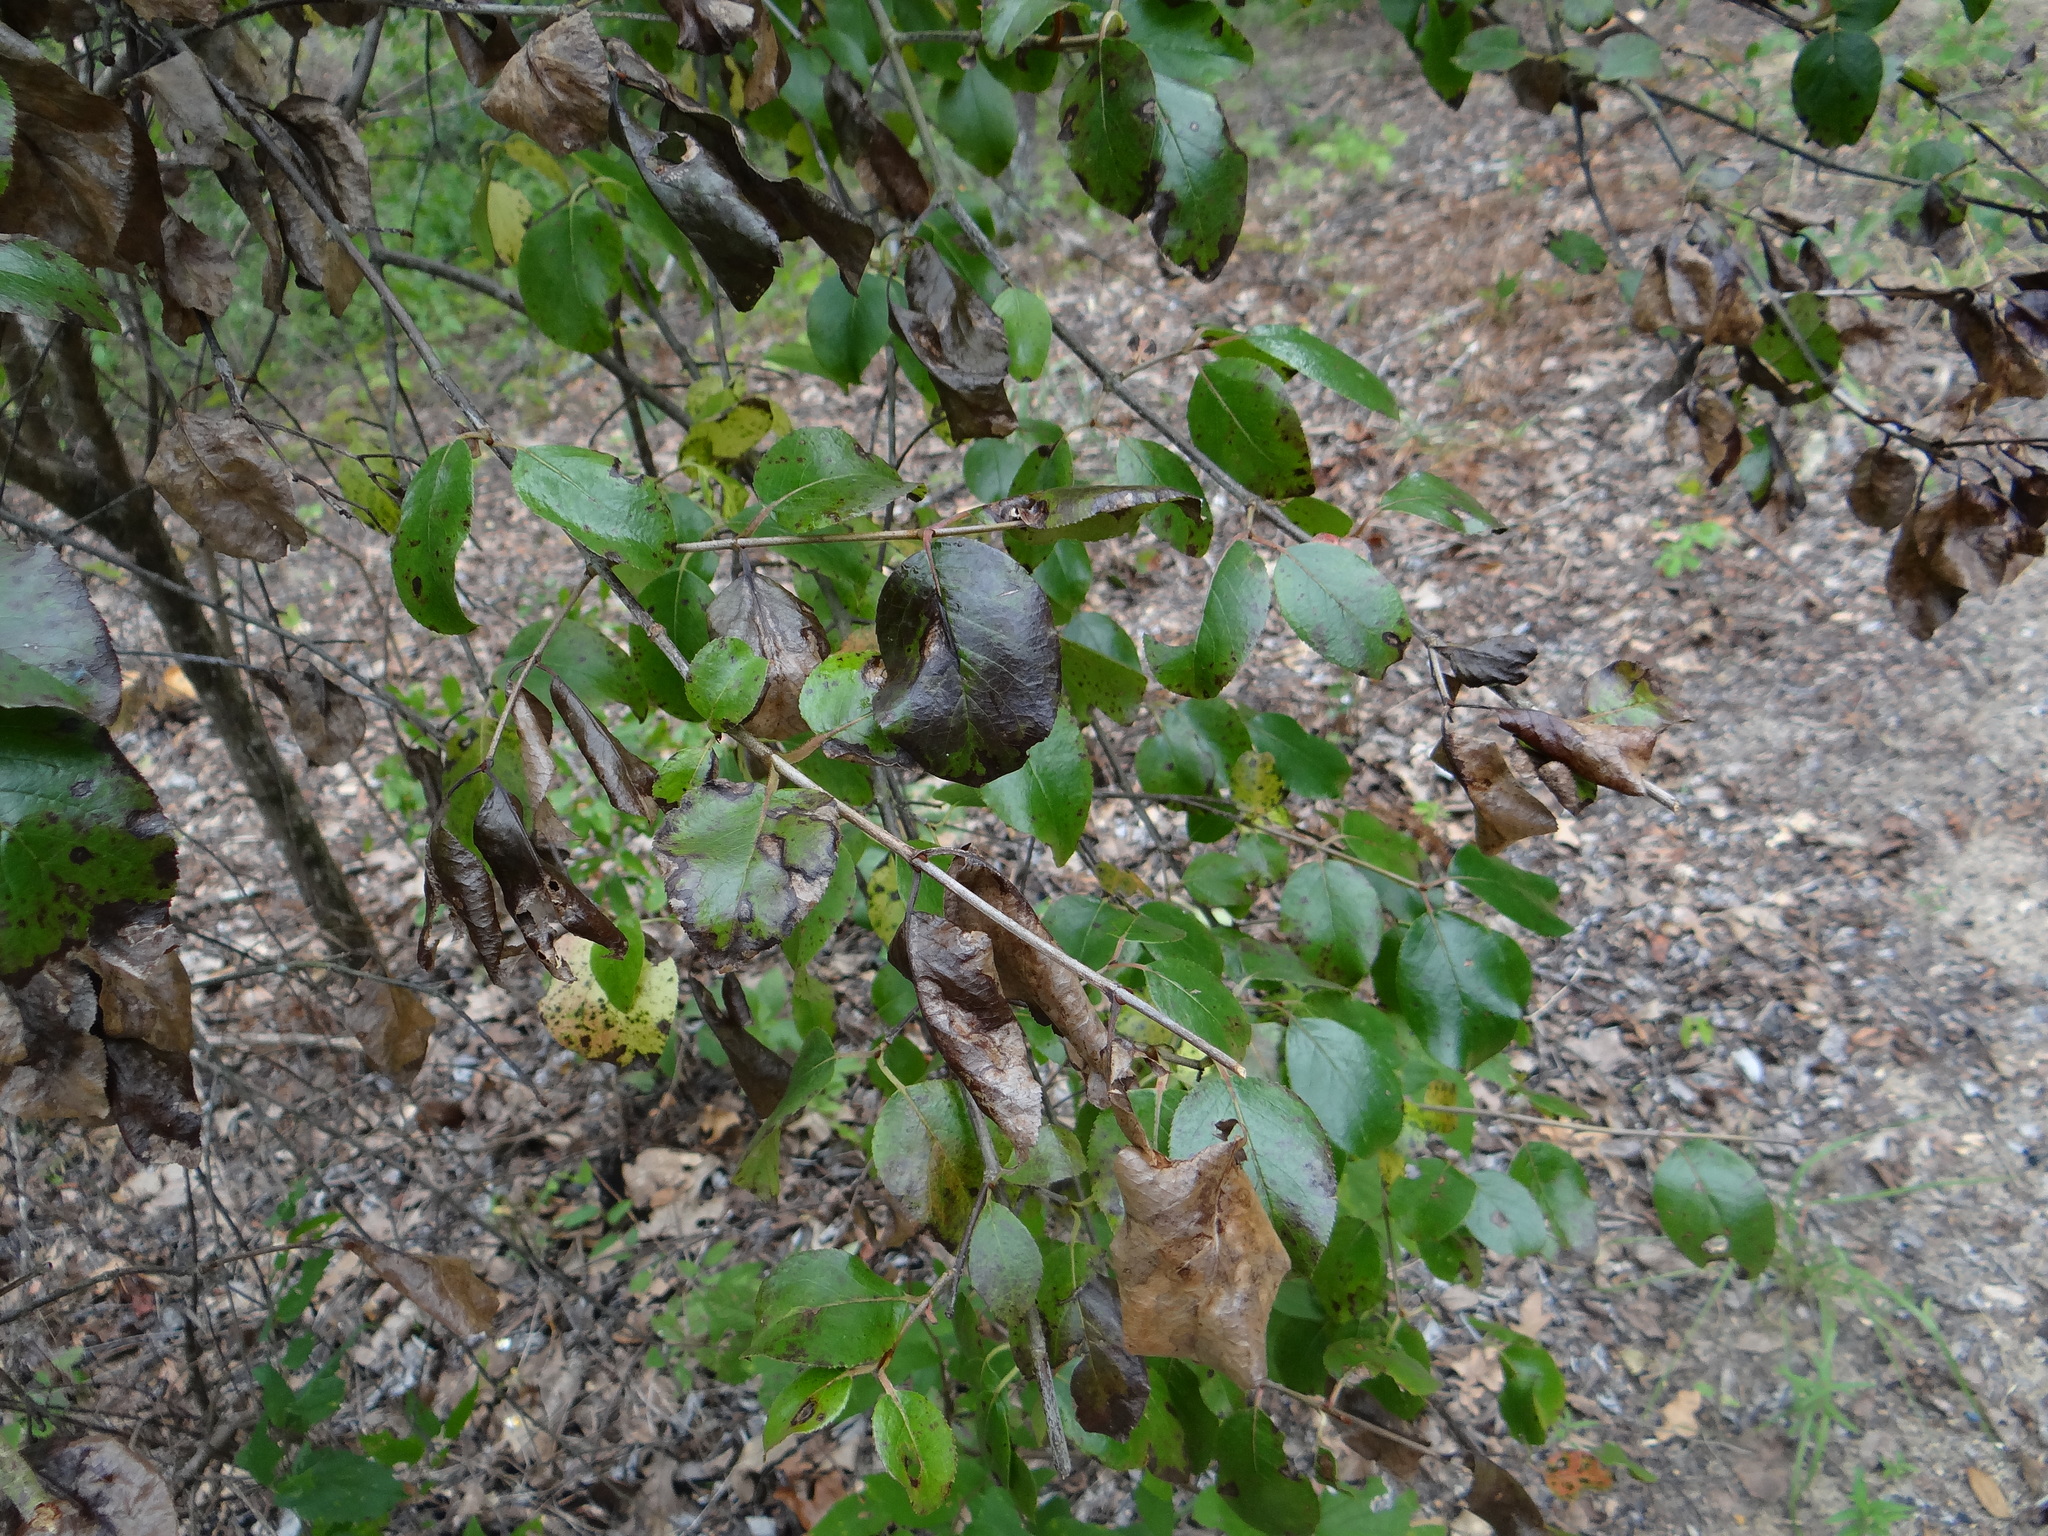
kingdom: Plantae
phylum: Tracheophyta
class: Magnoliopsida
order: Dipsacales
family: Viburnaceae
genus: Viburnum
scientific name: Viburnum rufidulum
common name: Blue haw
